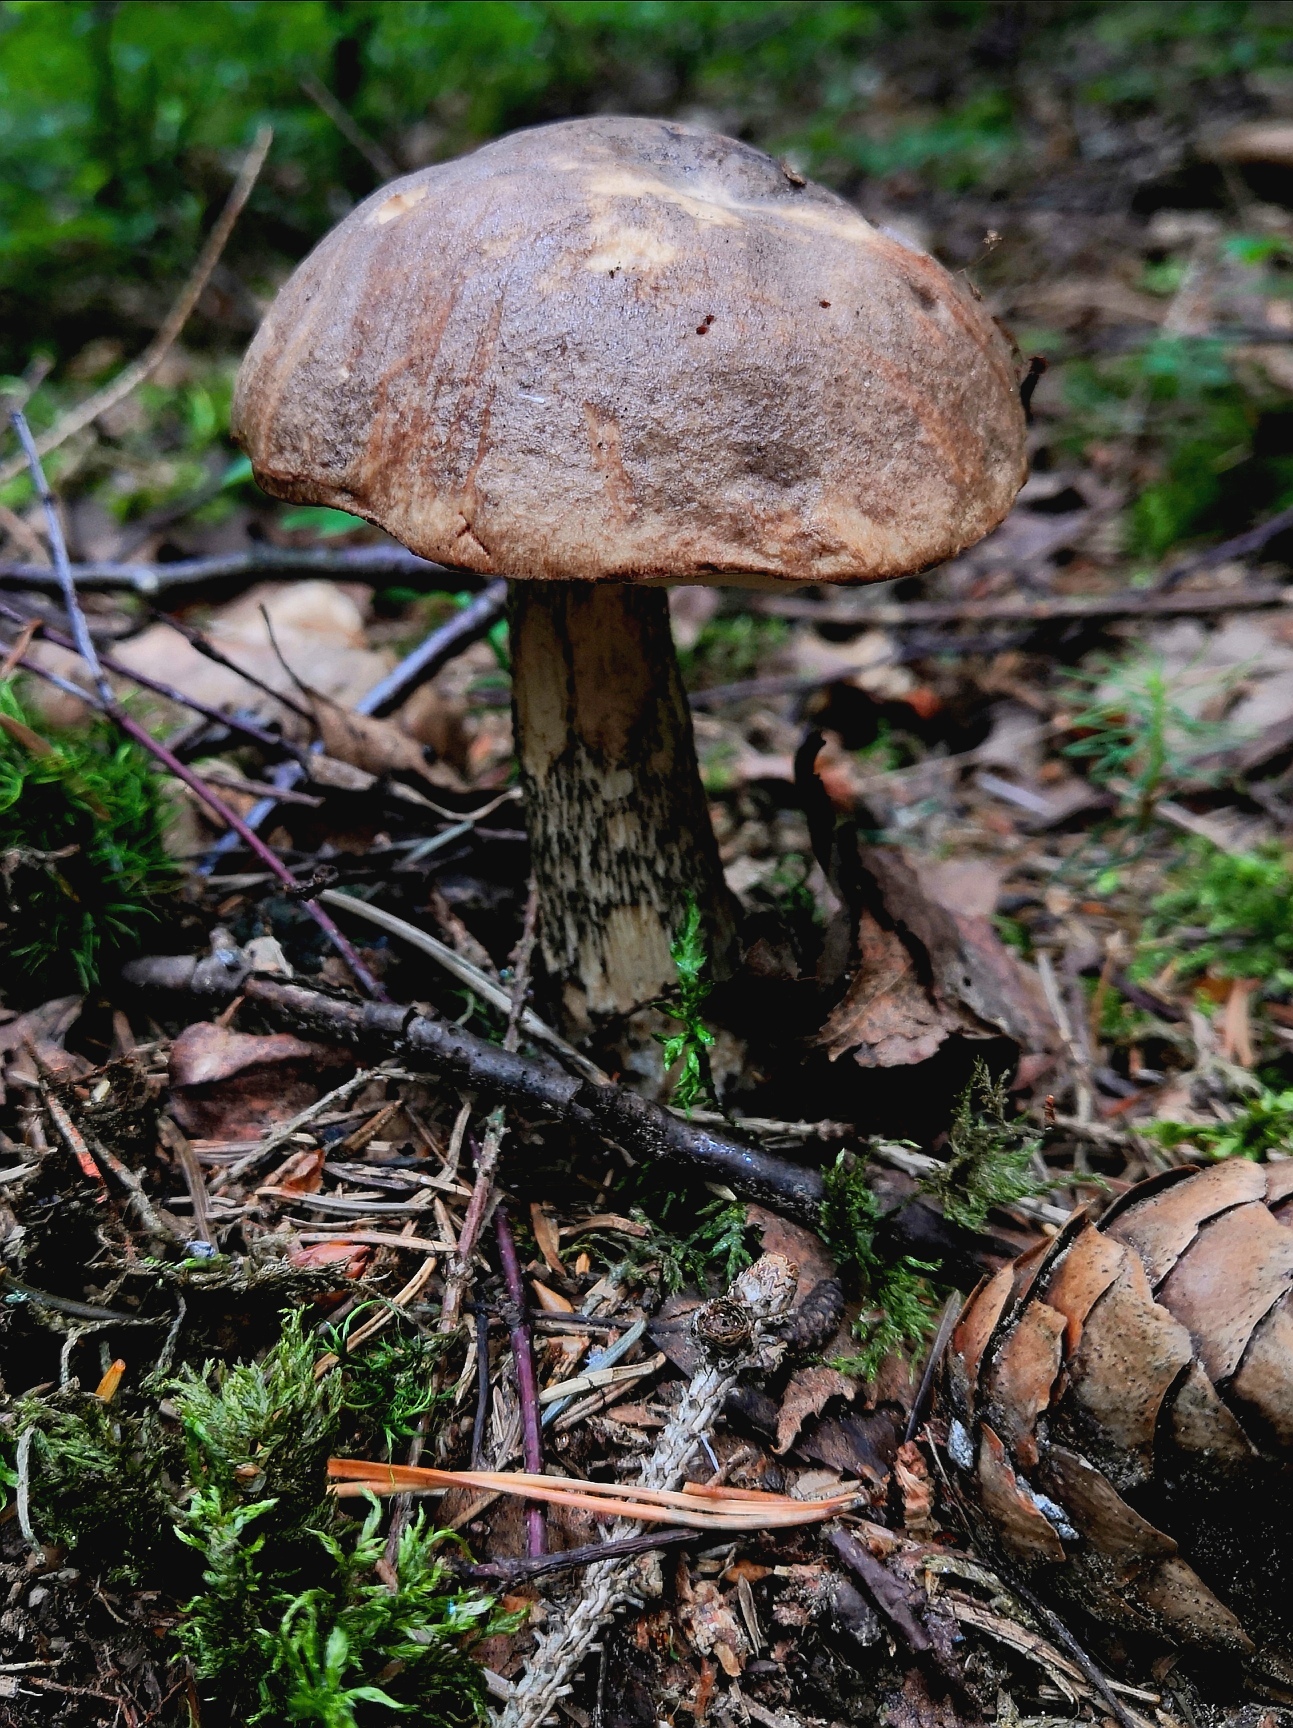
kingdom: Fungi
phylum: Basidiomycota
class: Agaricomycetes
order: Boletales
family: Boletaceae
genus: Leccinum
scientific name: Leccinum scabrum
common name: Blushing bolete
